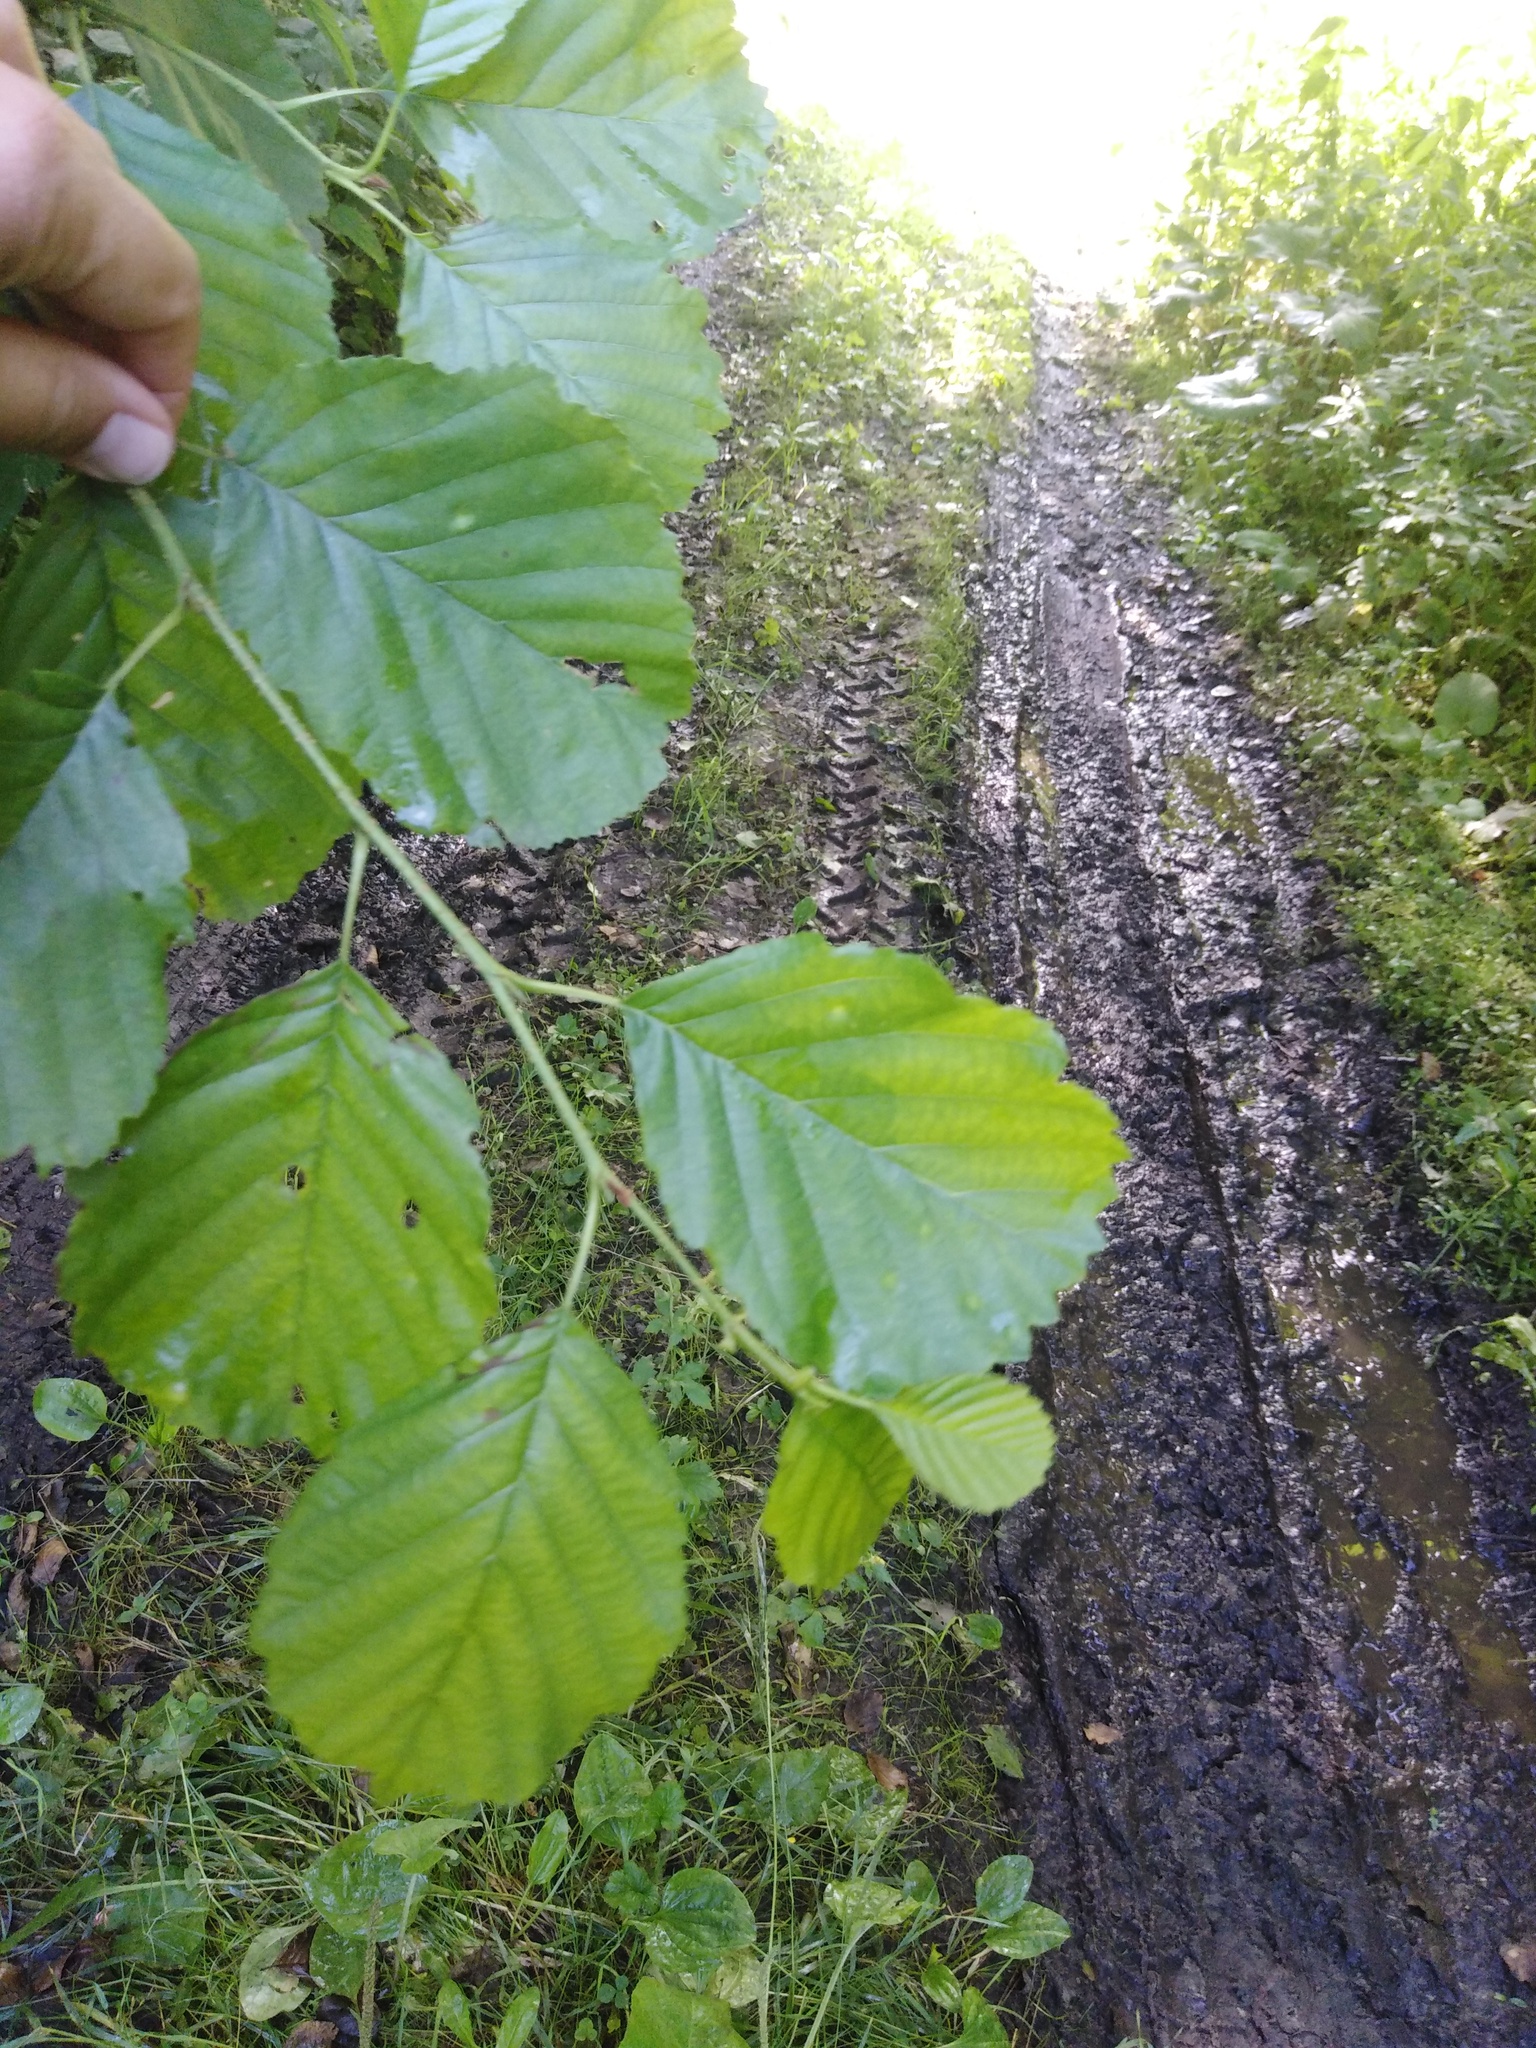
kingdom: Plantae
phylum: Tracheophyta
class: Magnoliopsida
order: Fagales
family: Betulaceae
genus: Alnus
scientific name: Alnus glutinosa
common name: Black alder
